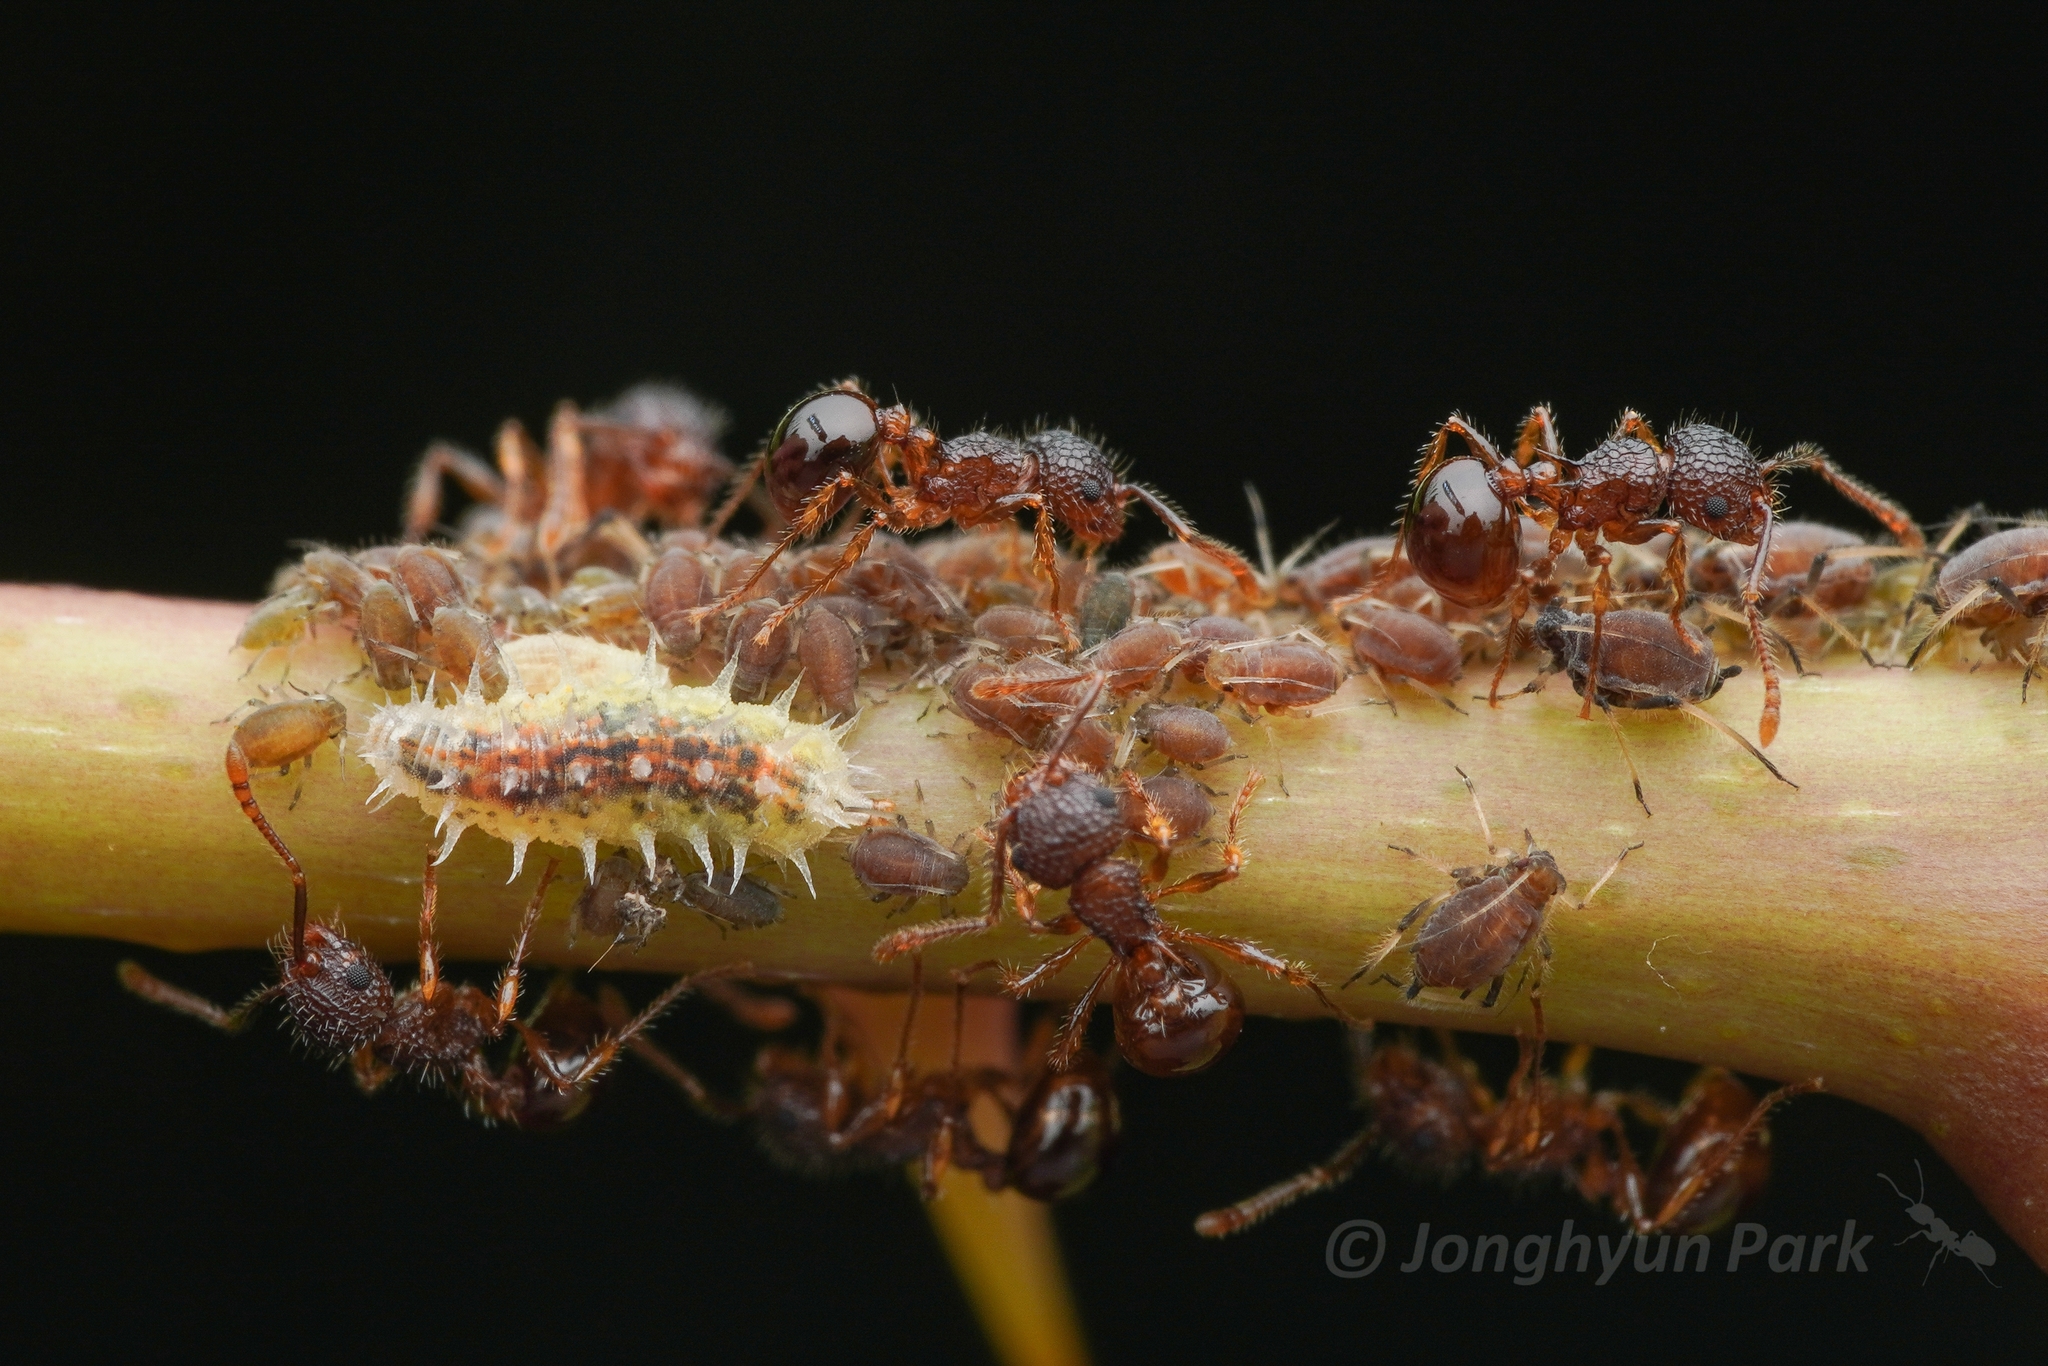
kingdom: Animalia
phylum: Arthropoda
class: Insecta
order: Hymenoptera
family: Formicidae
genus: Pristomyrmex
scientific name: Pristomyrmex punctatus
